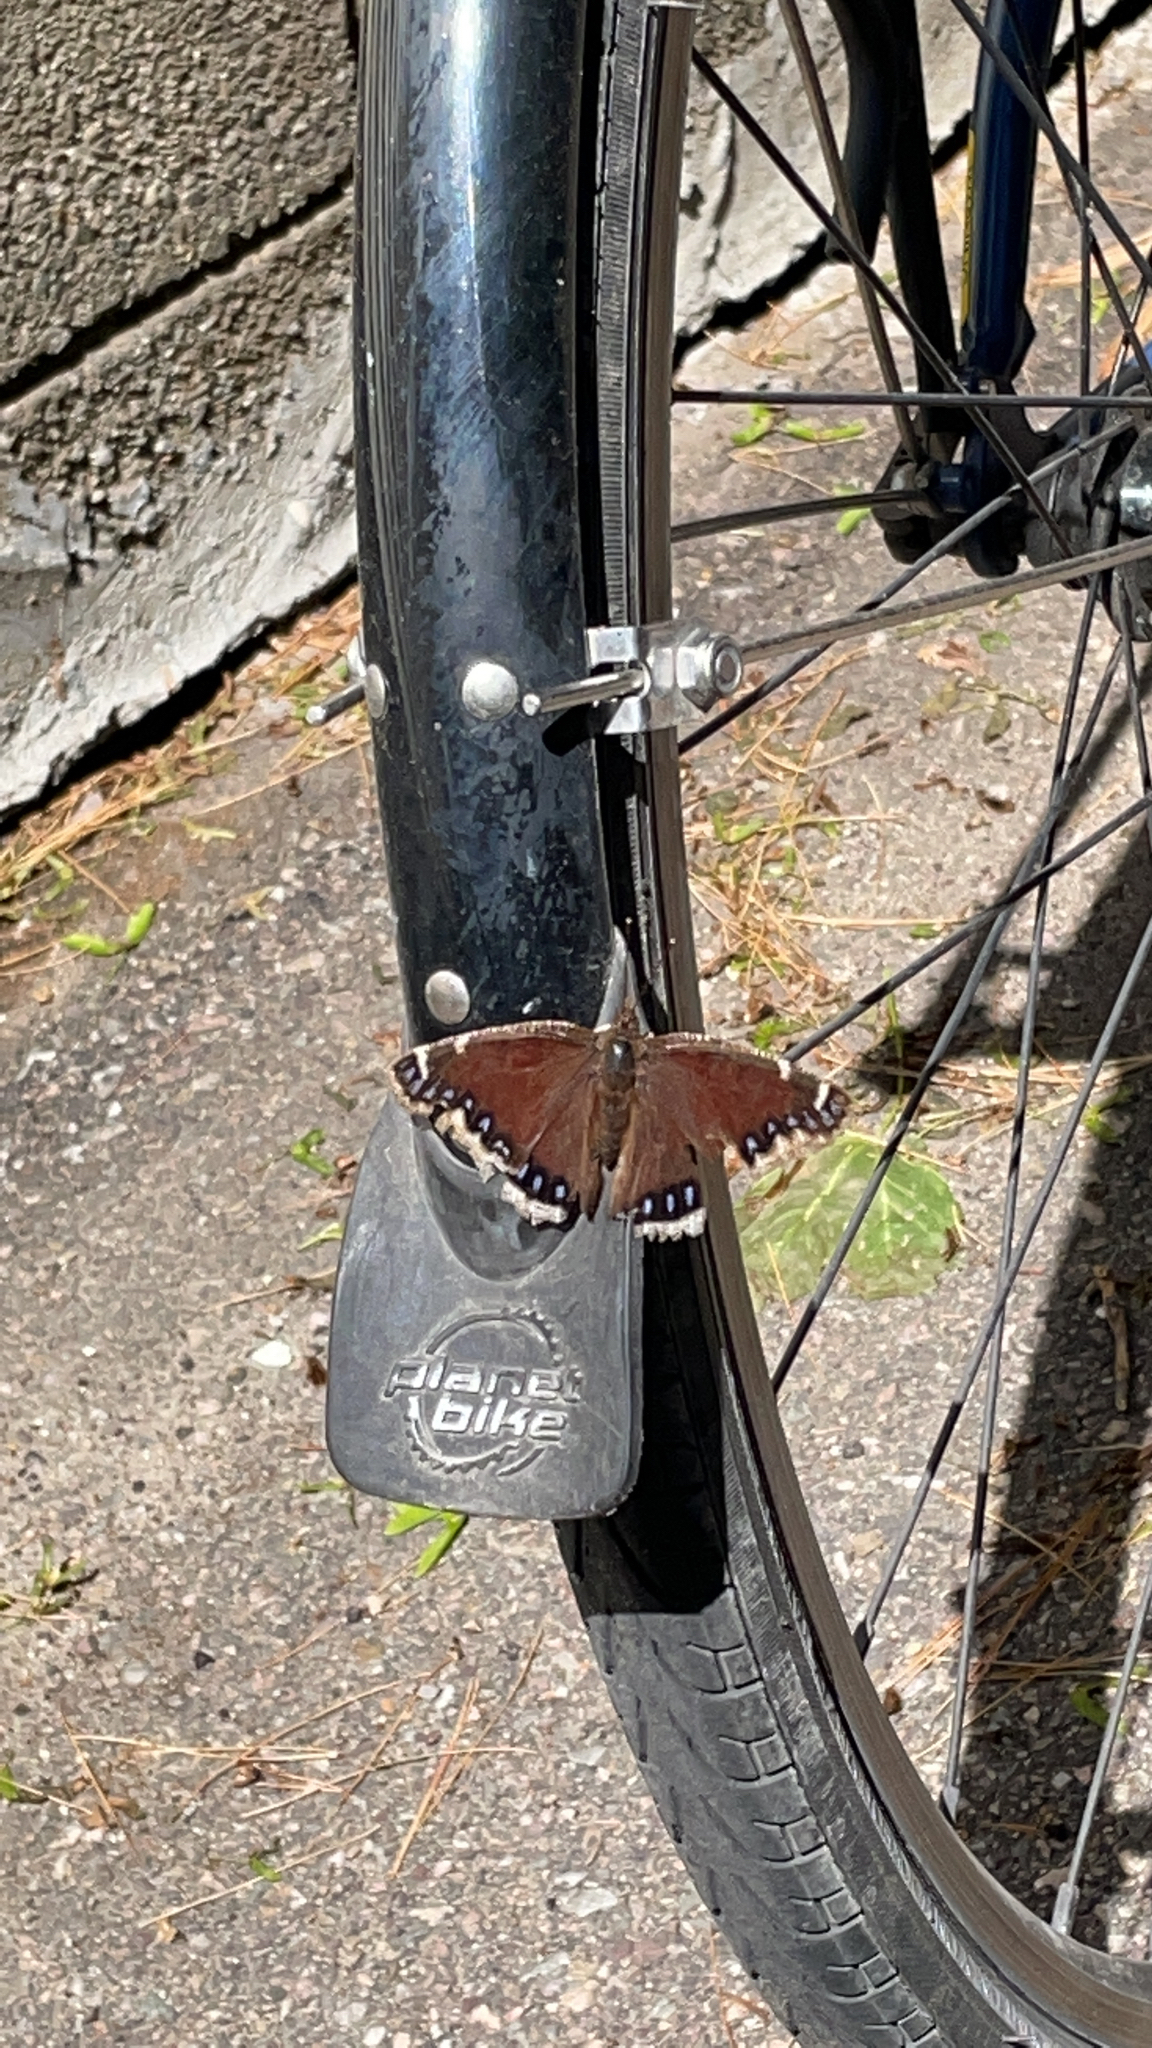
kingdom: Animalia
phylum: Arthropoda
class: Insecta
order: Lepidoptera
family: Nymphalidae
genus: Nymphalis
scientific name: Nymphalis antiopa
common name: Camberwell beauty
